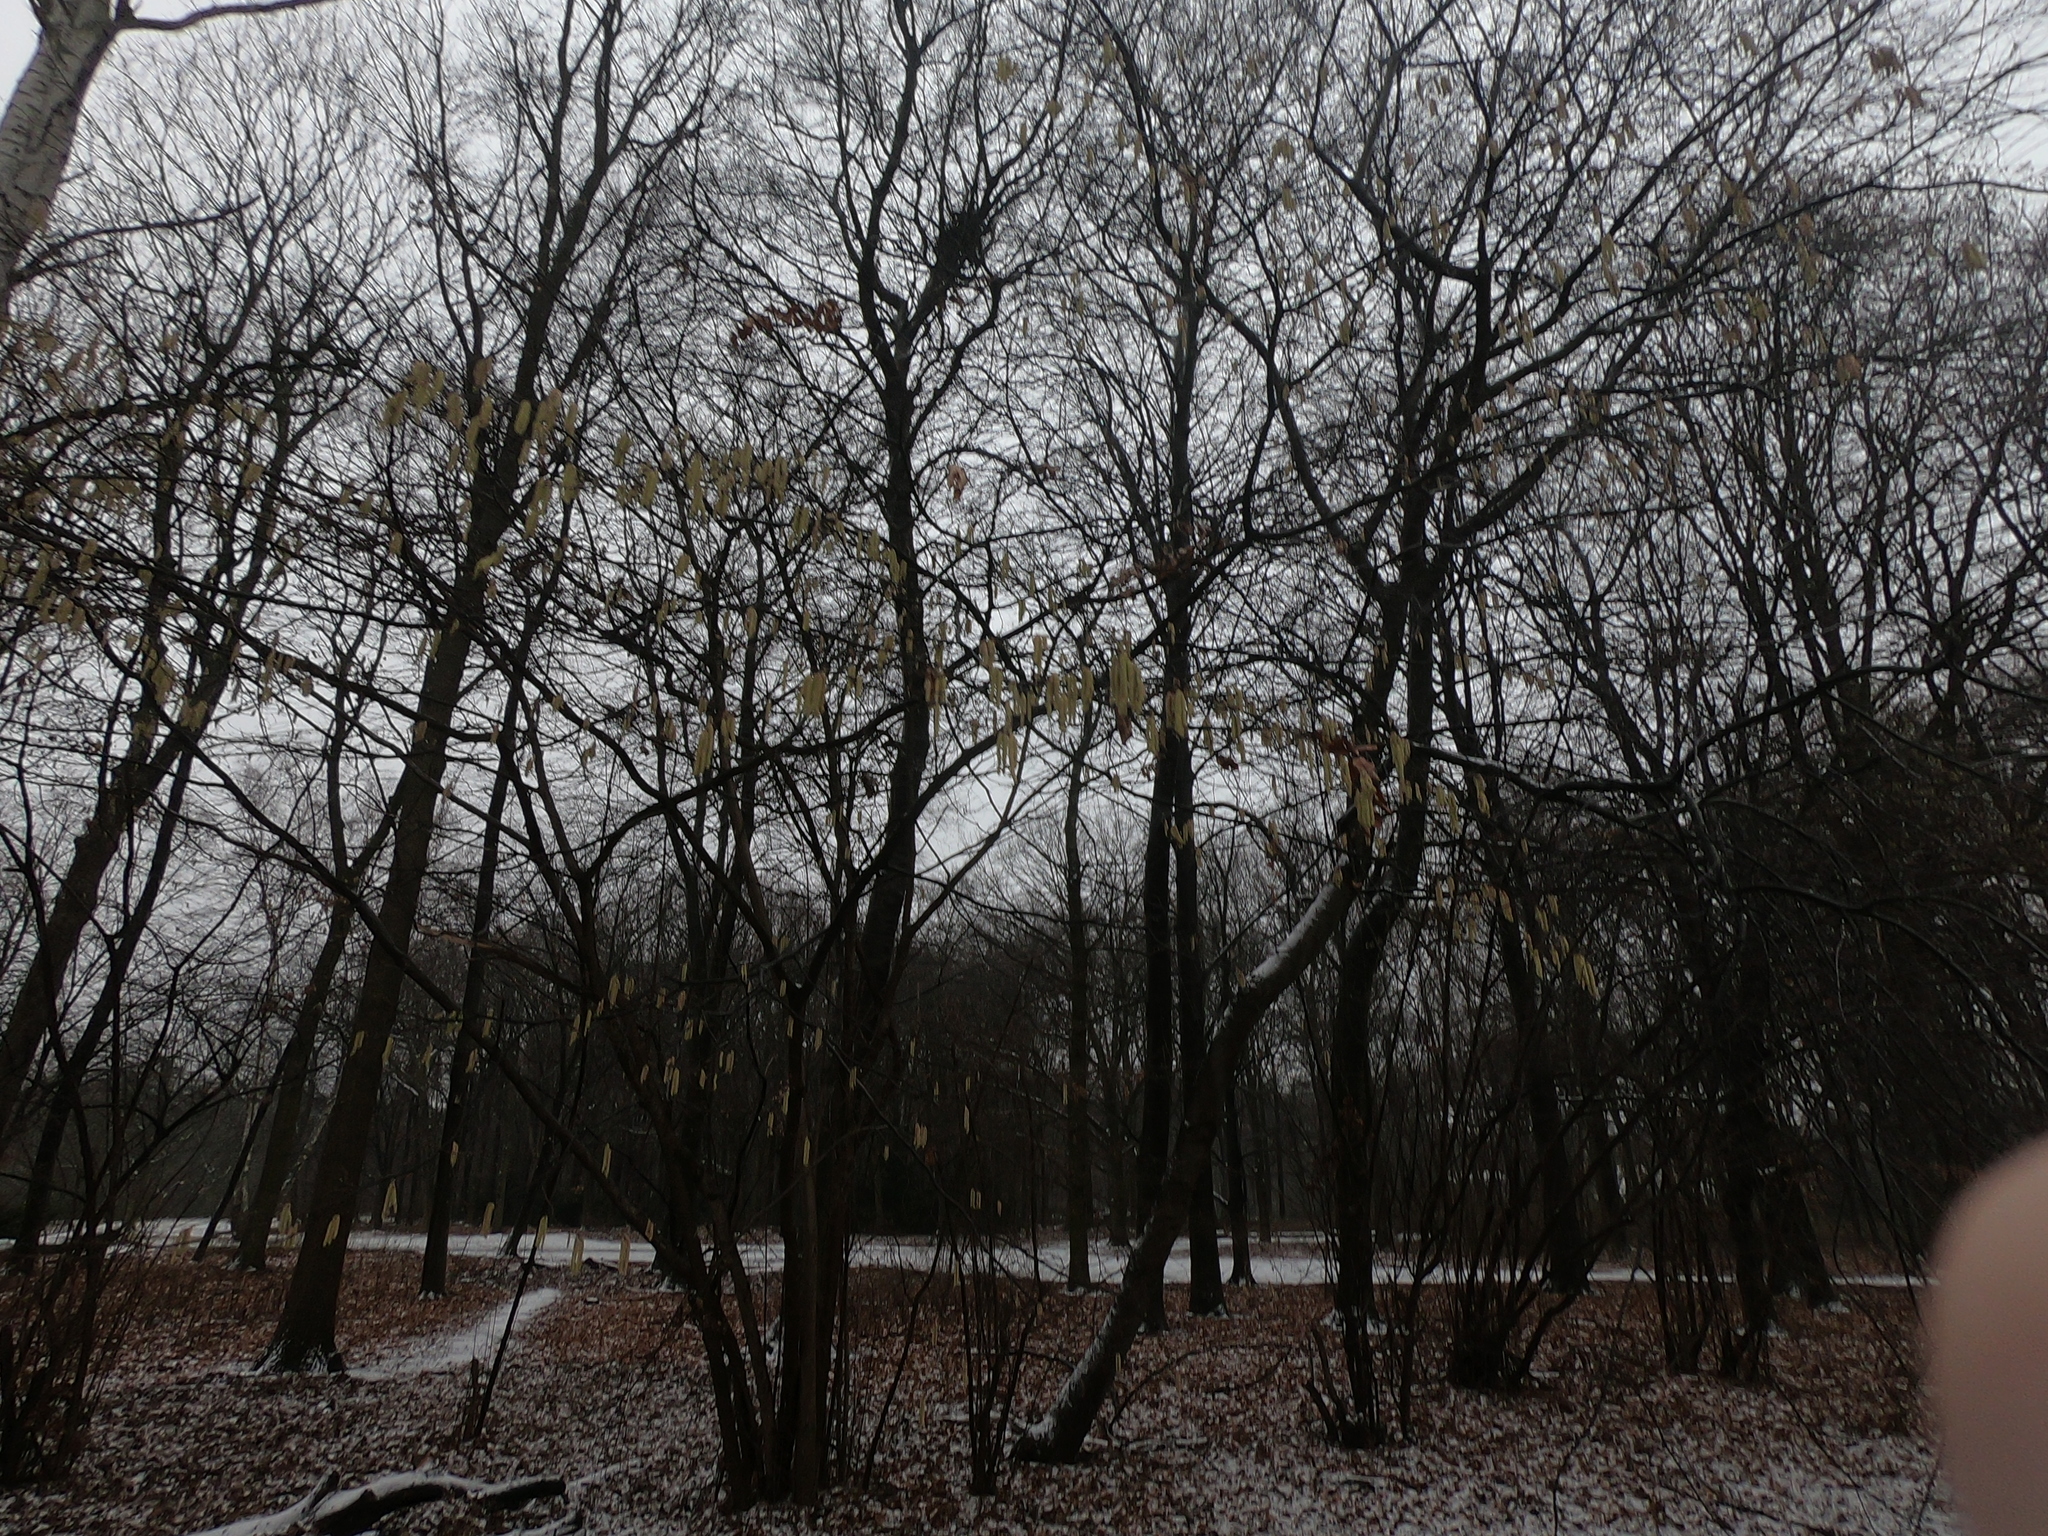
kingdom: Plantae
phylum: Tracheophyta
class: Magnoliopsida
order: Fagales
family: Betulaceae
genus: Corylus
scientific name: Corylus avellana
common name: European hazel
